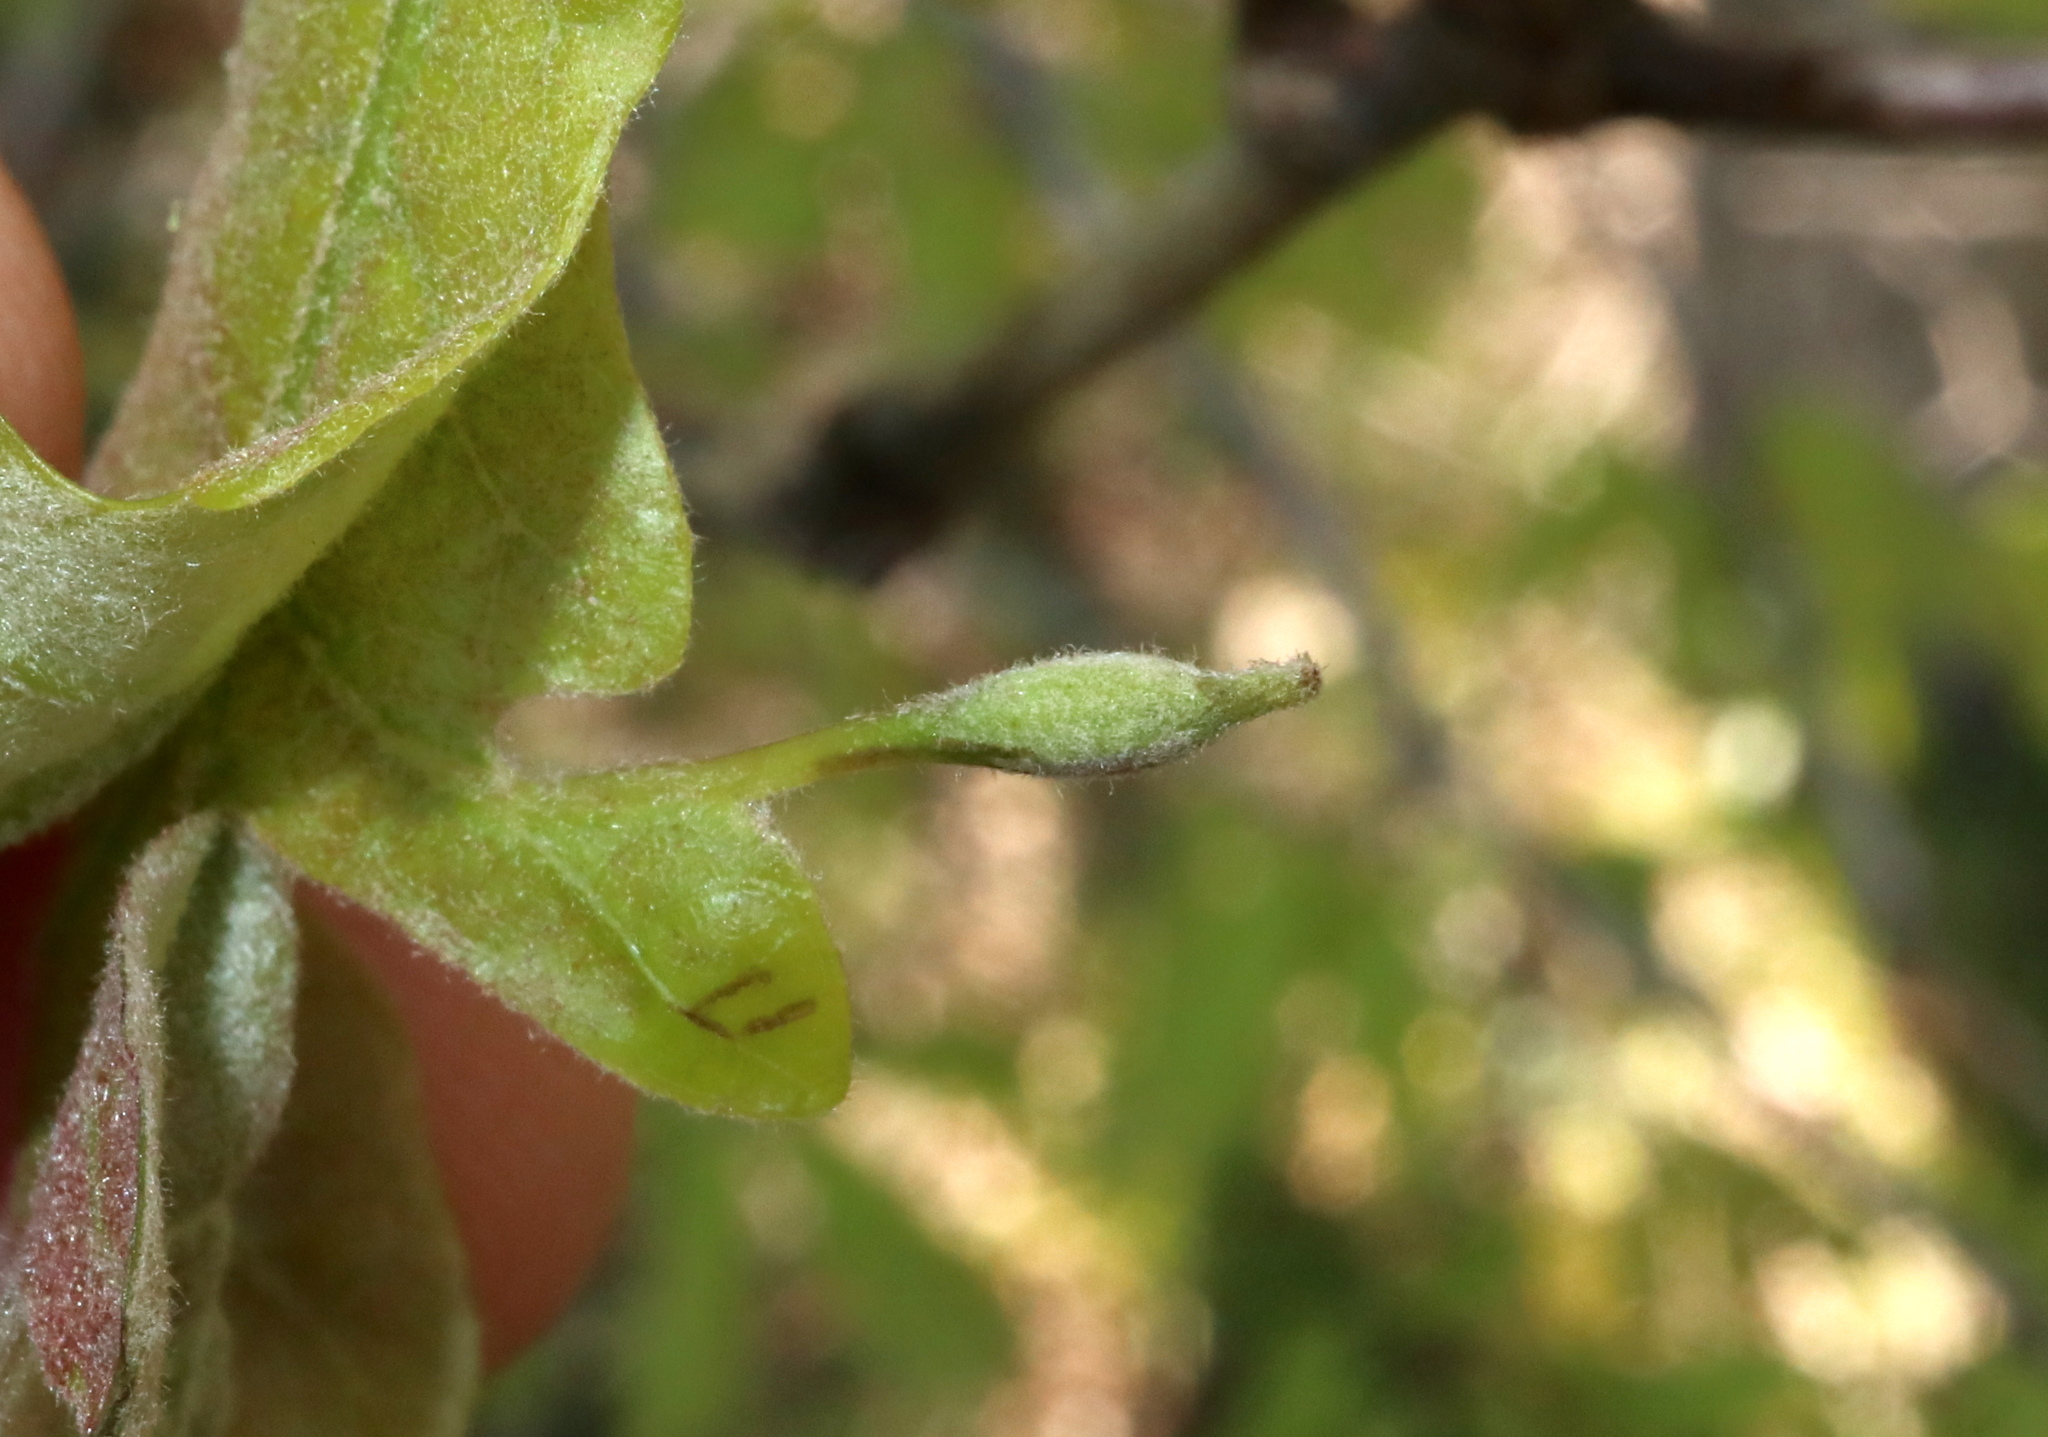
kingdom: Animalia
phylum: Arthropoda
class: Insecta
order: Hymenoptera
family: Cynipidae
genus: Andricus
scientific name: Andricus
